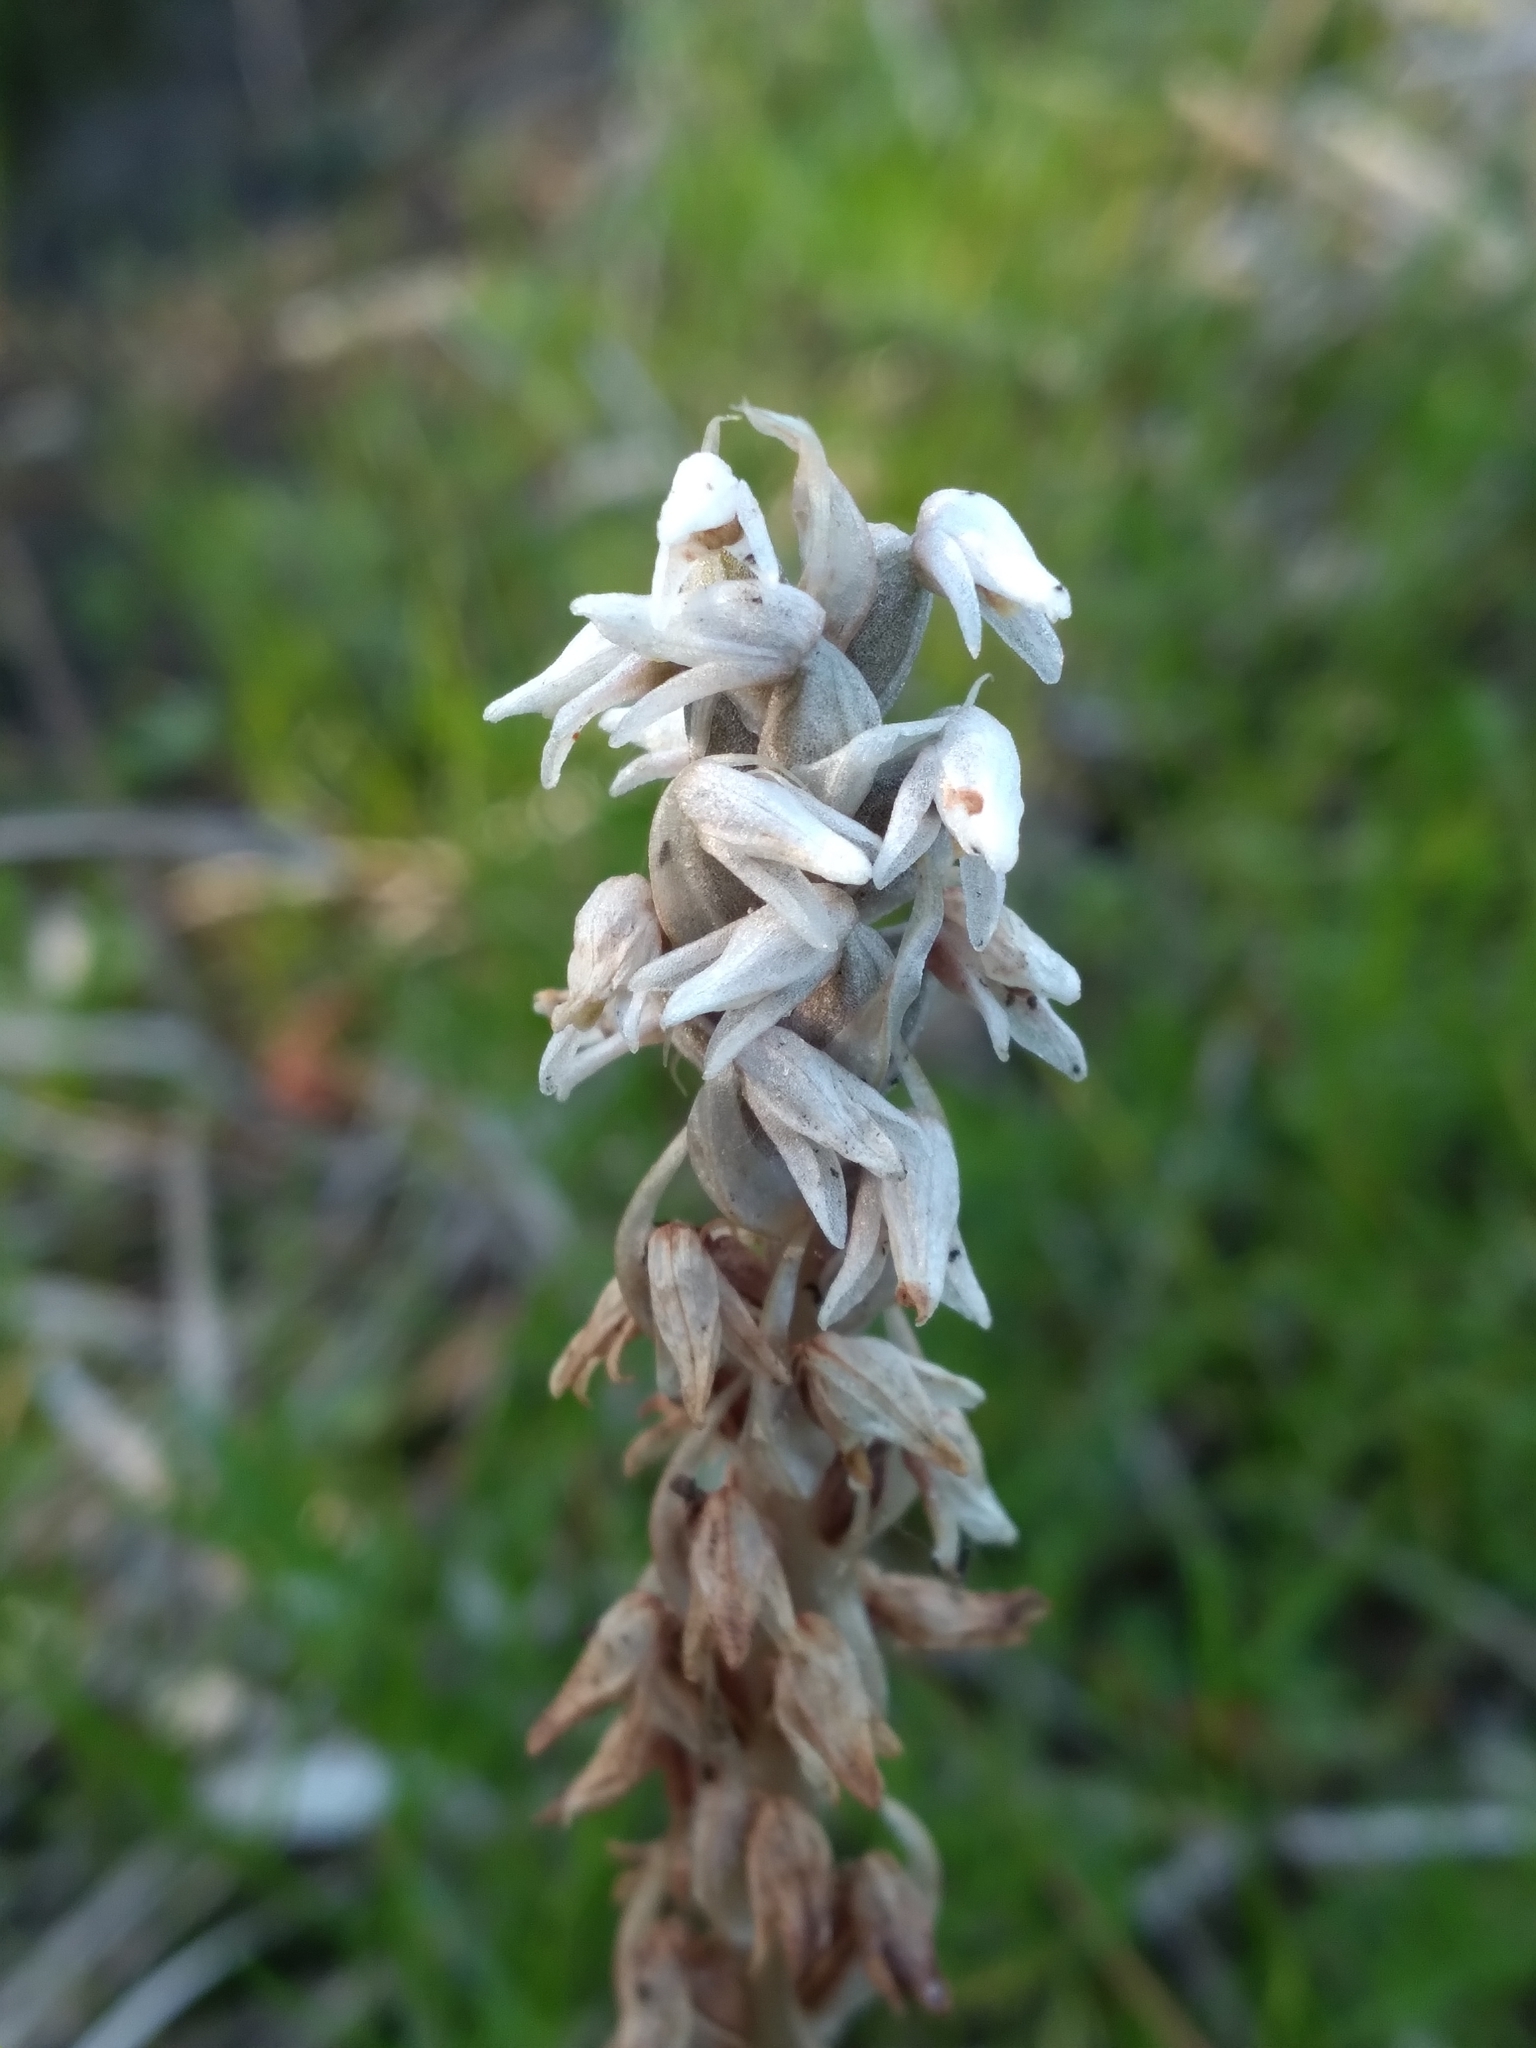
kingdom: Plantae
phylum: Tracheophyta
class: Liliopsida
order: Asparagales
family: Orchidaceae
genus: Zeuxine
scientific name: Zeuxine strateumatica
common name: Soldier's orchid
